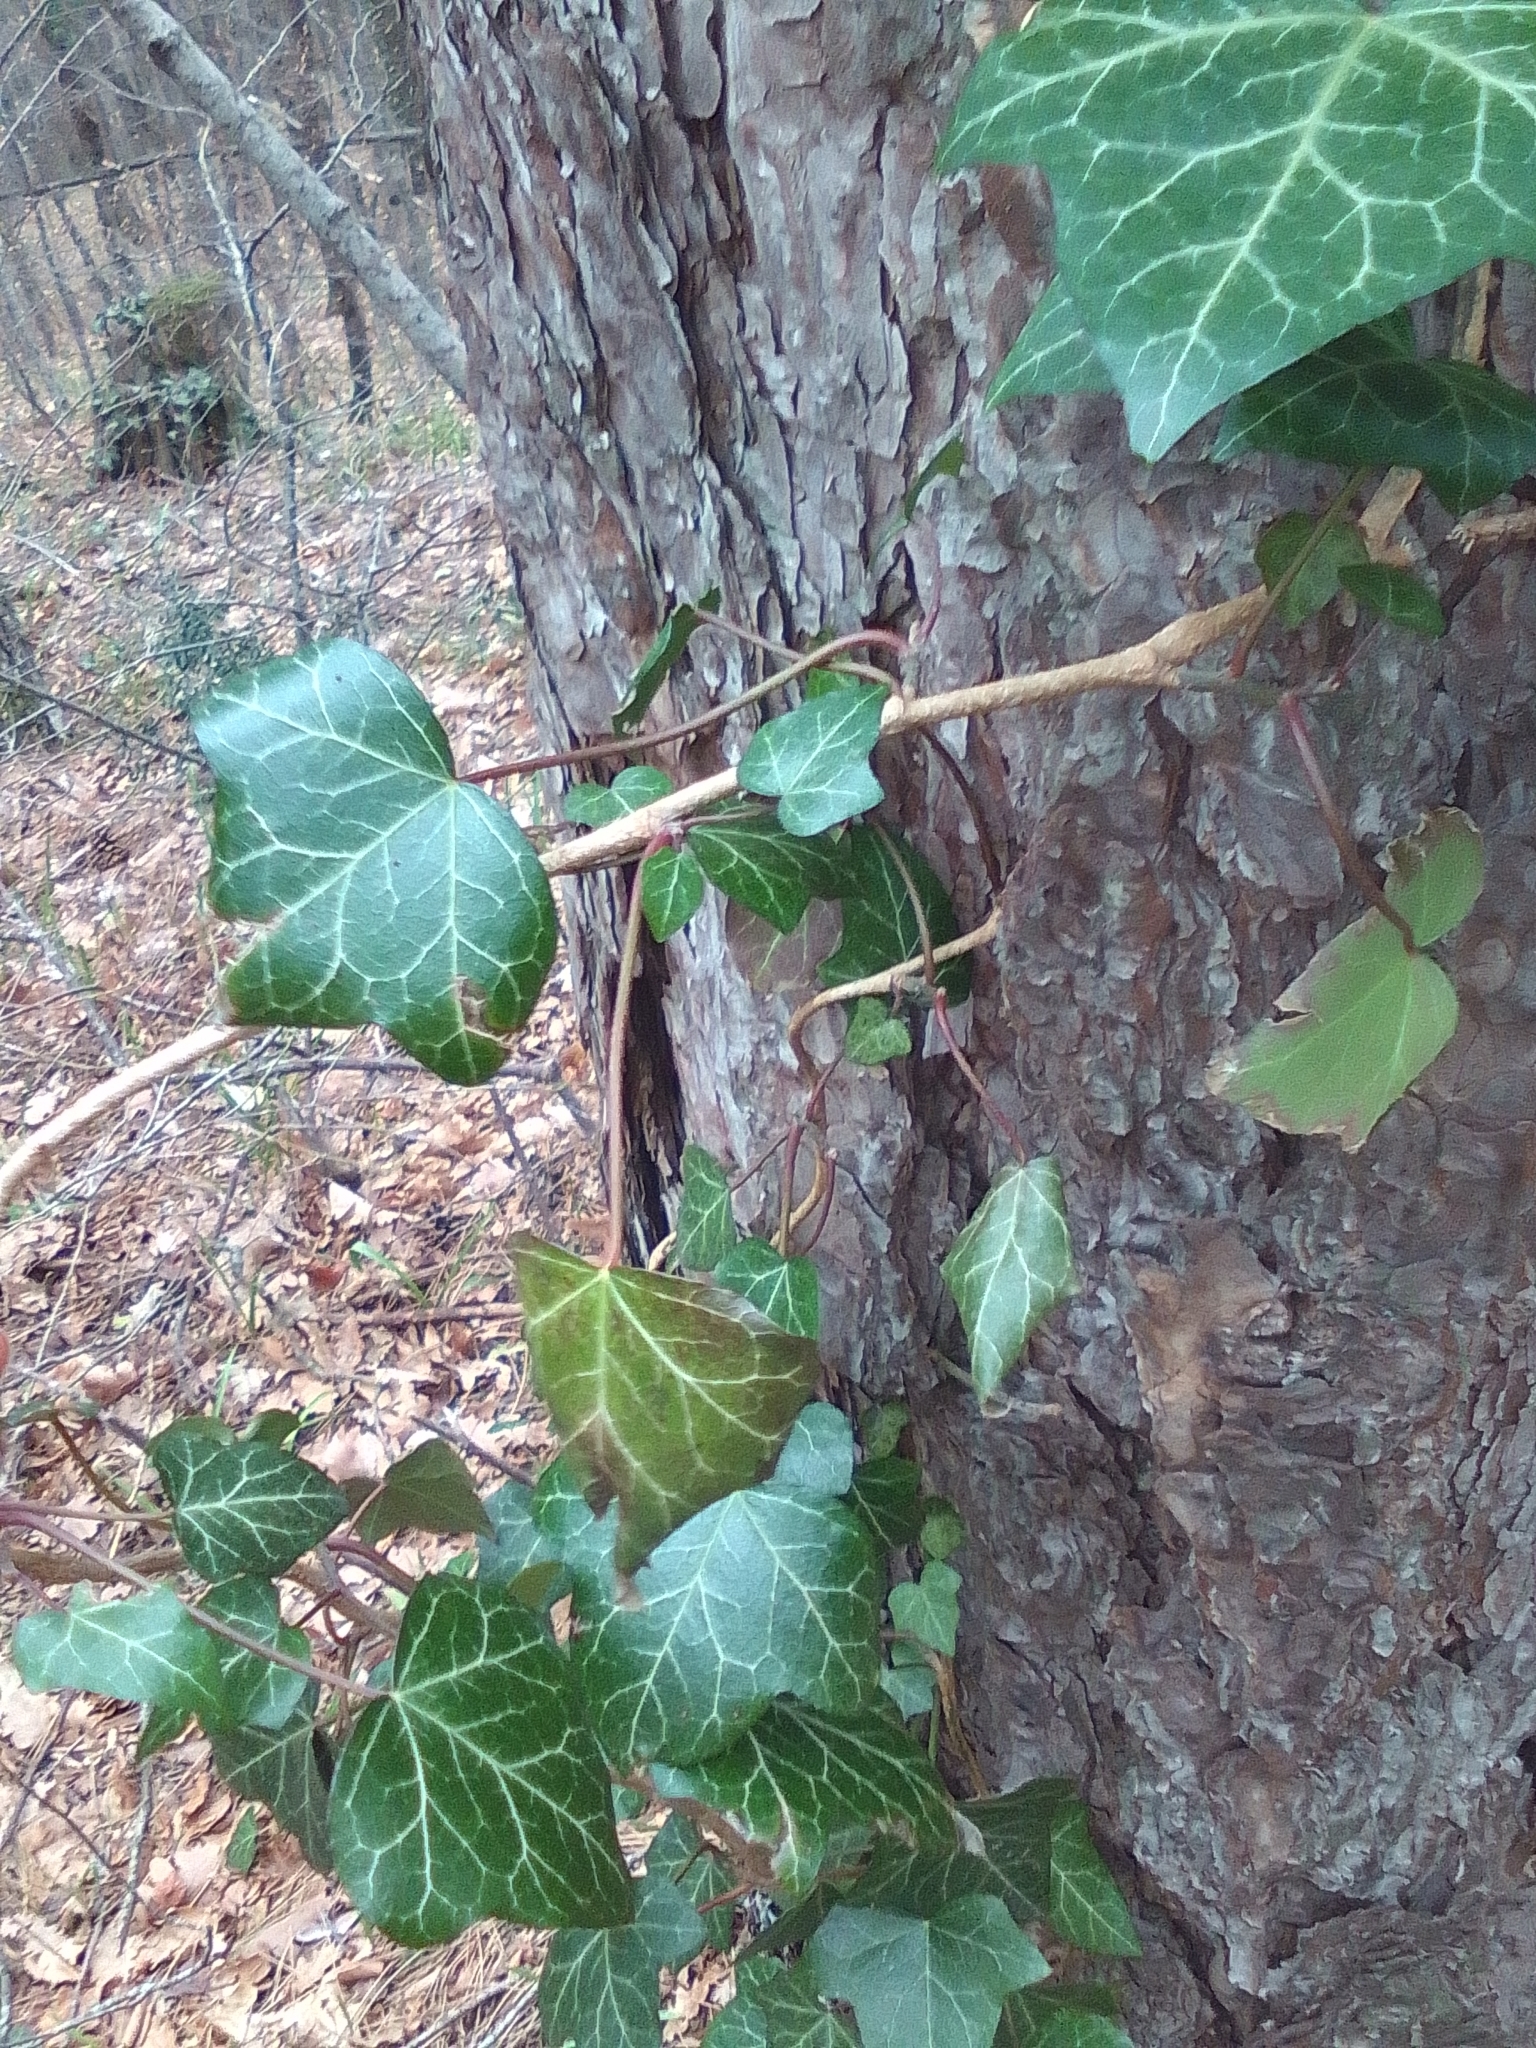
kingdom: Plantae
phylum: Tracheophyta
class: Magnoliopsida
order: Apiales
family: Araliaceae
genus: Hedera
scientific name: Hedera helix
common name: Ivy
